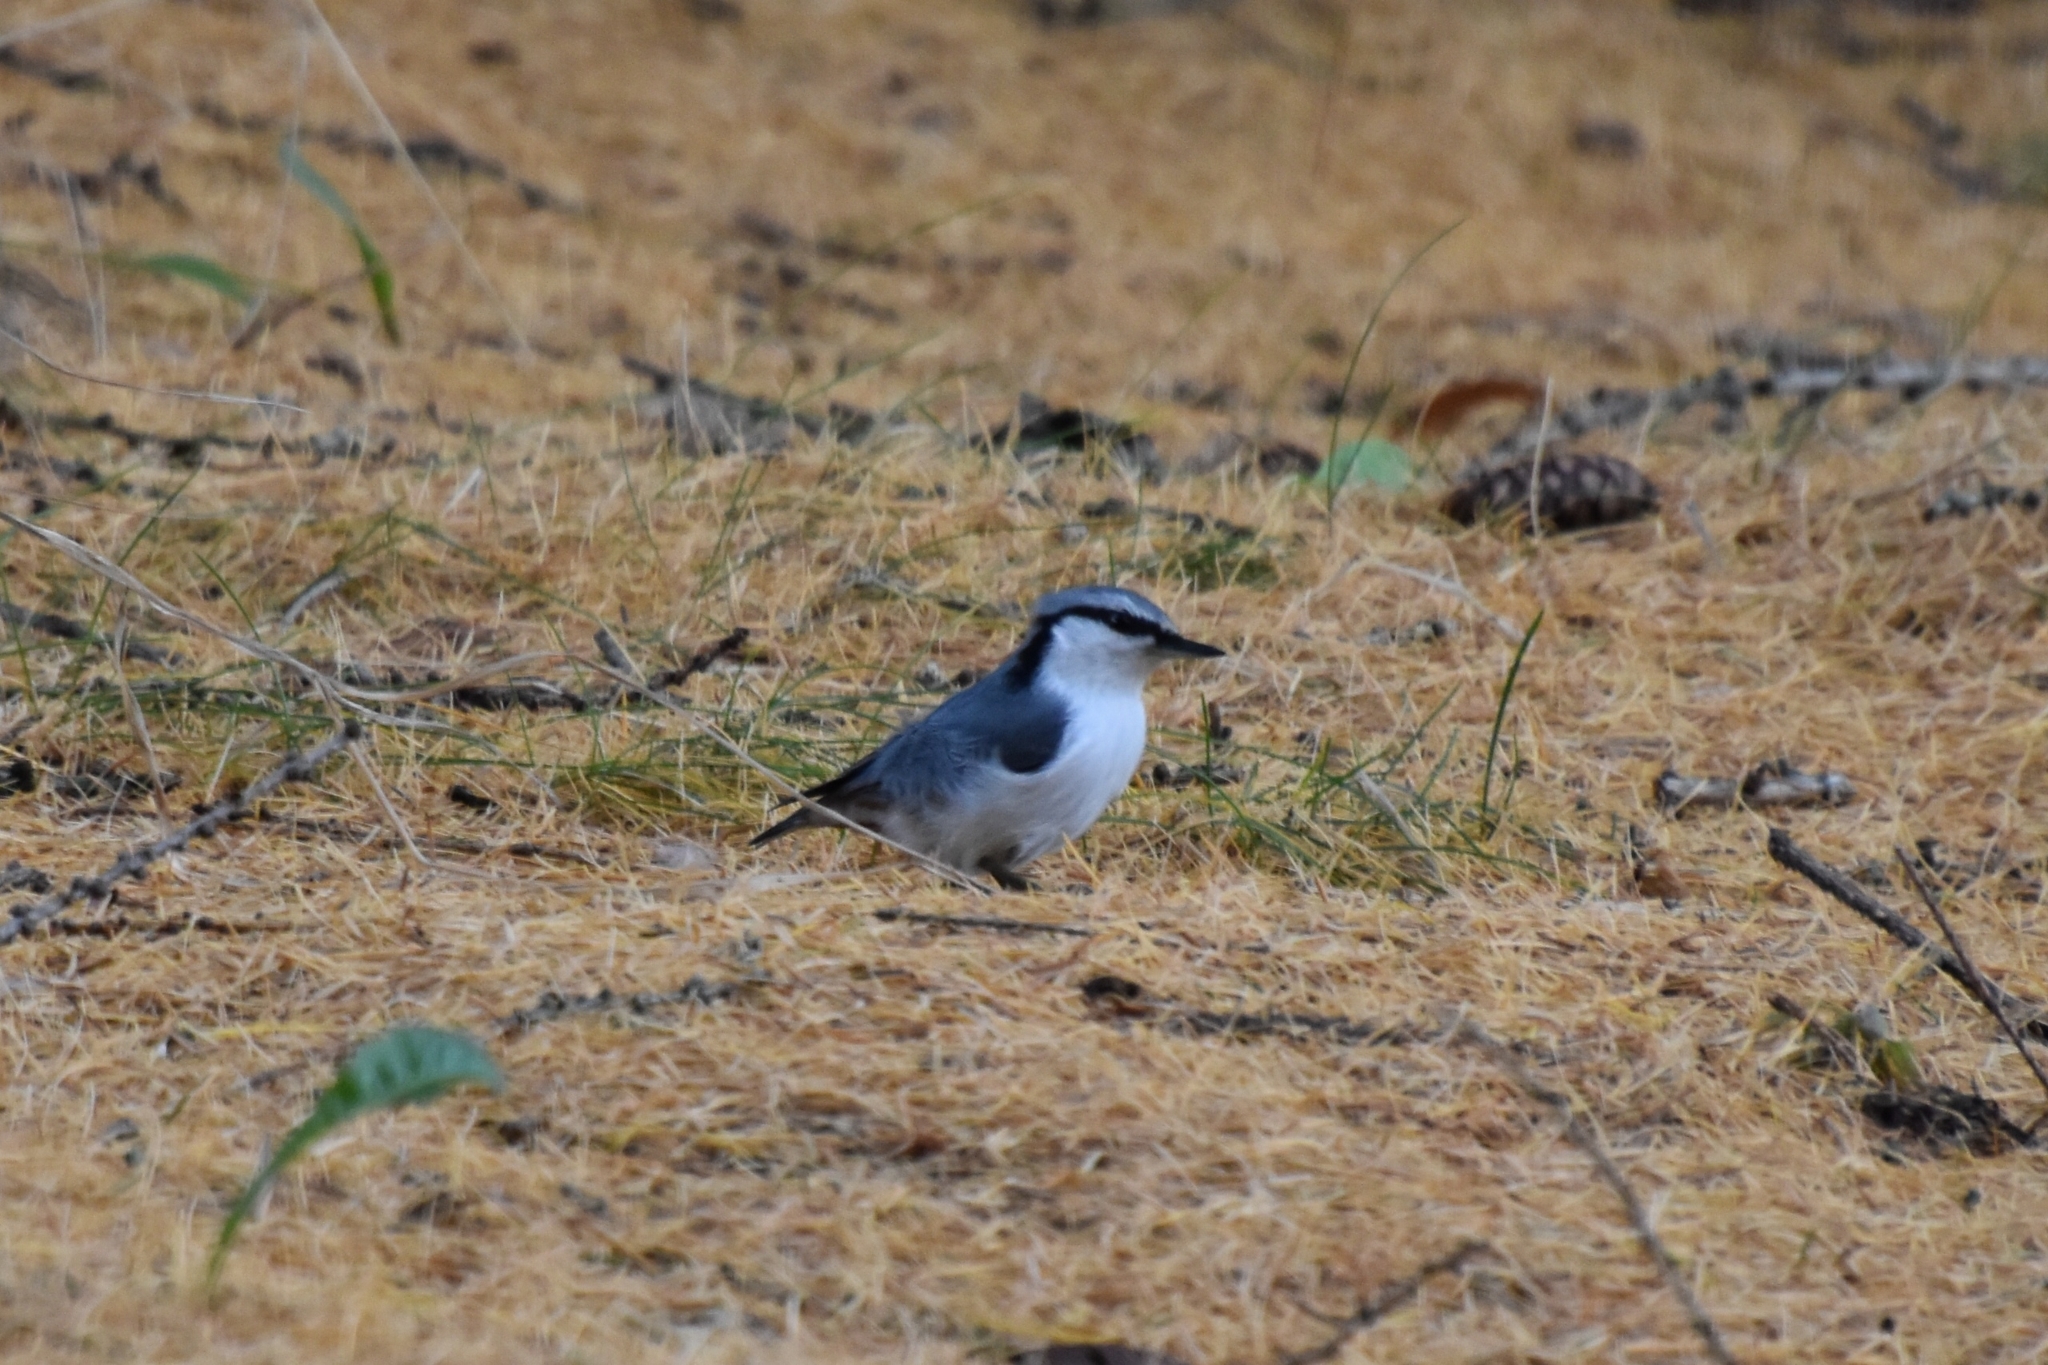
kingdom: Animalia
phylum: Chordata
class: Aves
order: Passeriformes
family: Sittidae
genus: Sitta
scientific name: Sitta europaea
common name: Eurasian nuthatch
